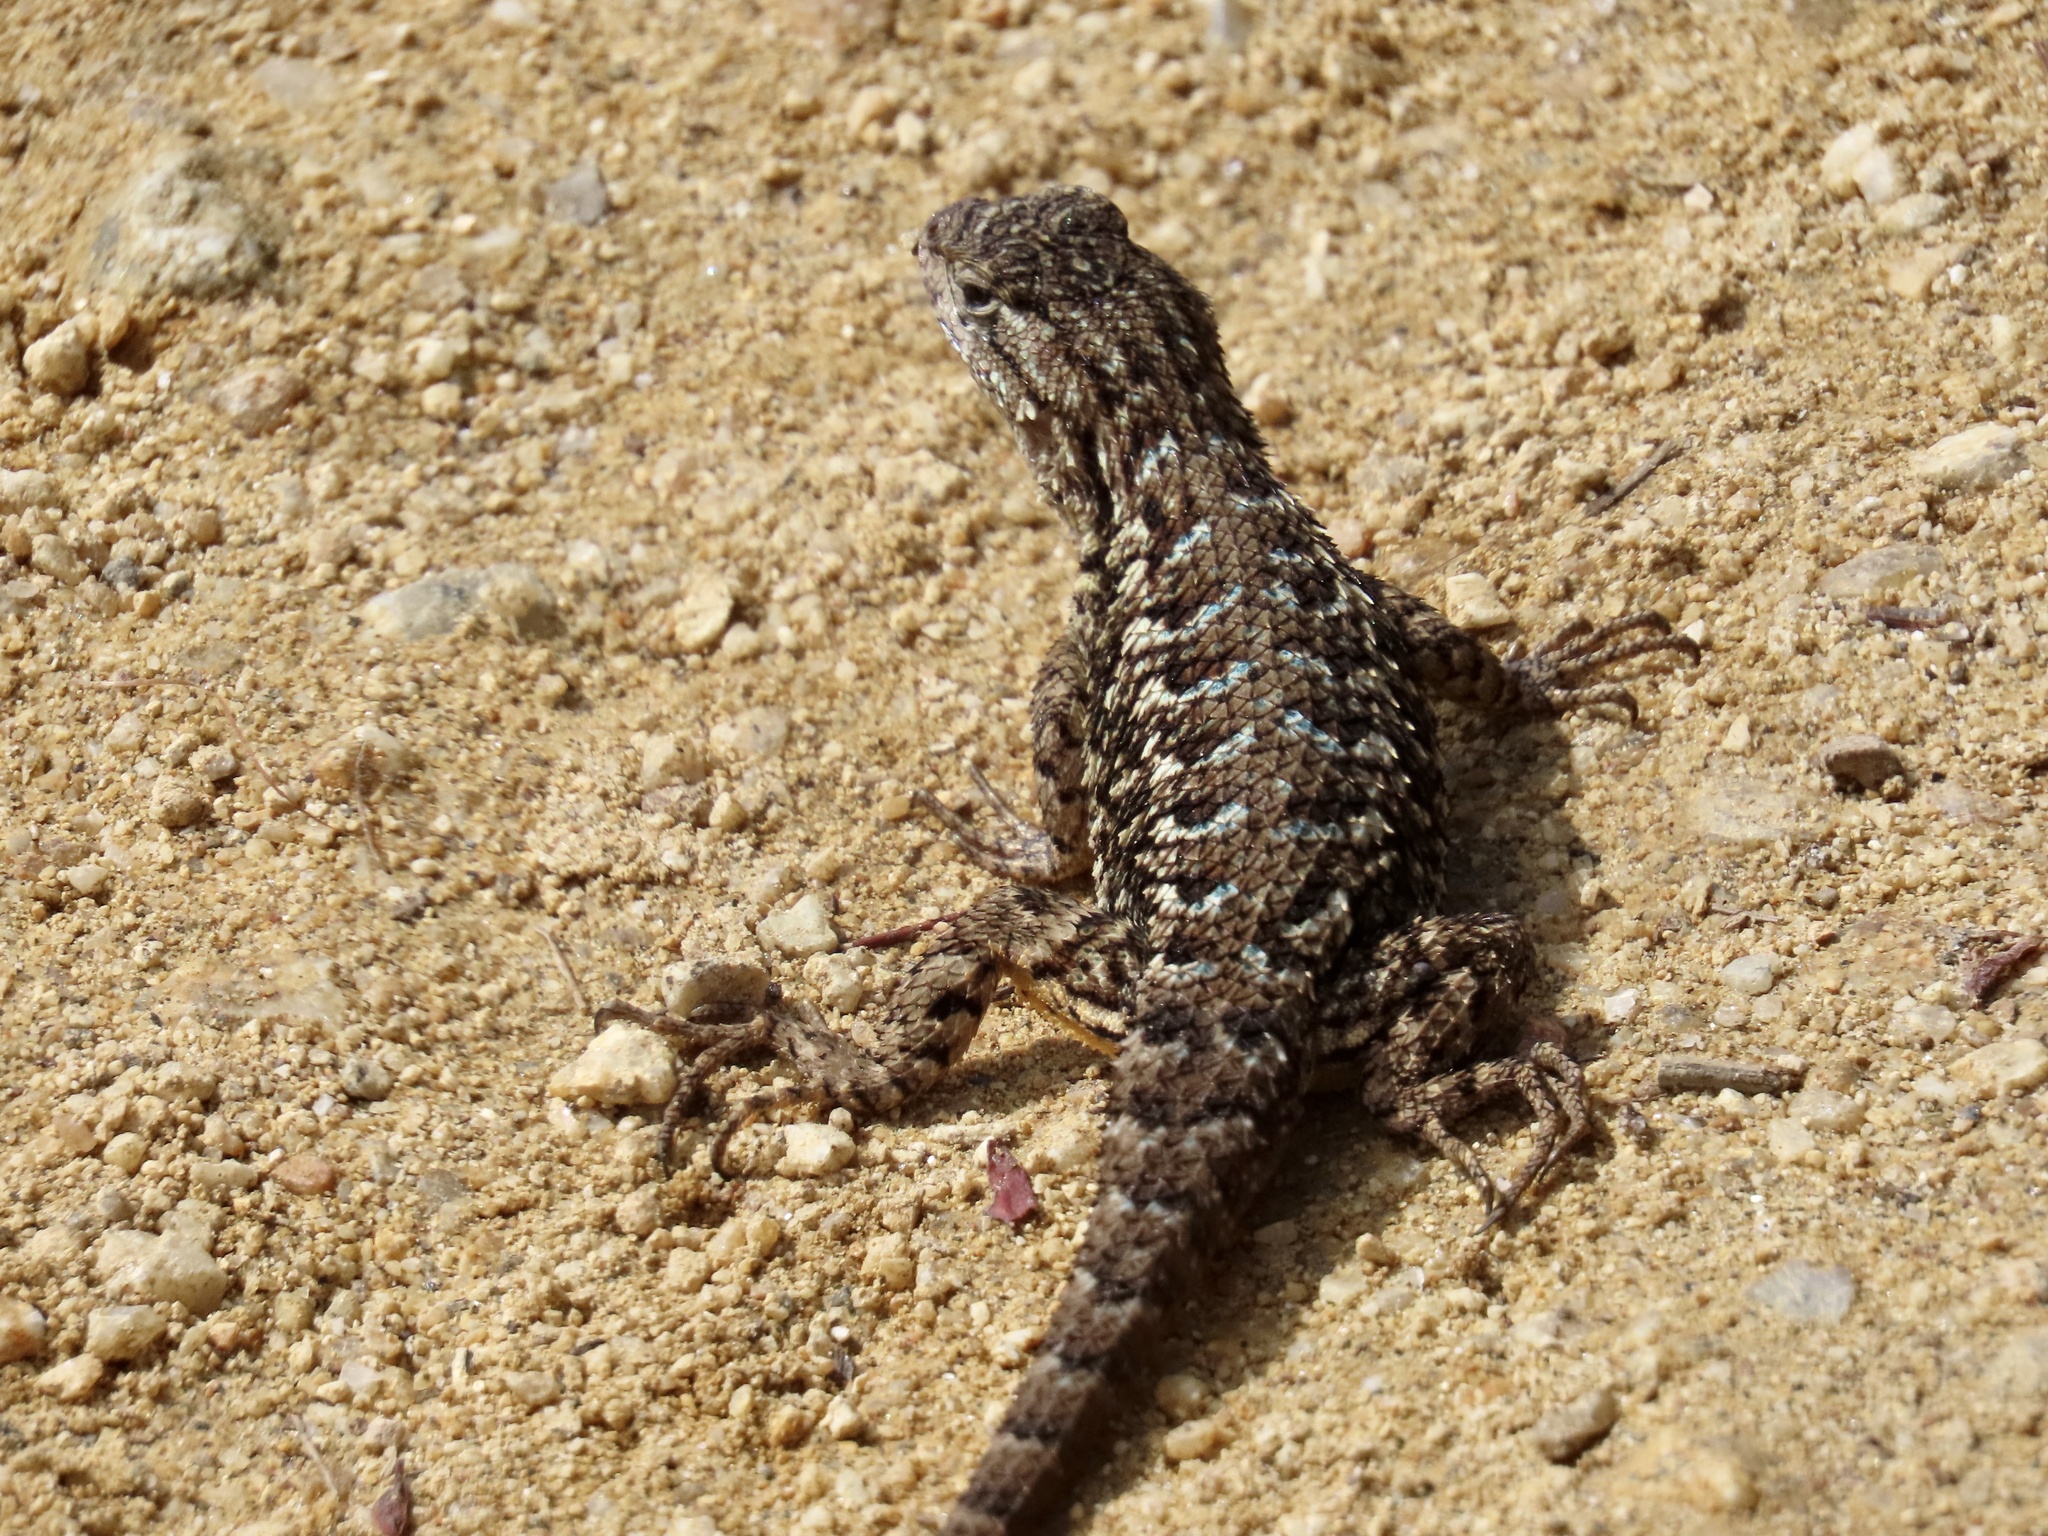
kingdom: Animalia
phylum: Chordata
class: Squamata
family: Phrynosomatidae
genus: Sceloporus
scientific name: Sceloporus occidentalis
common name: Western fence lizard
